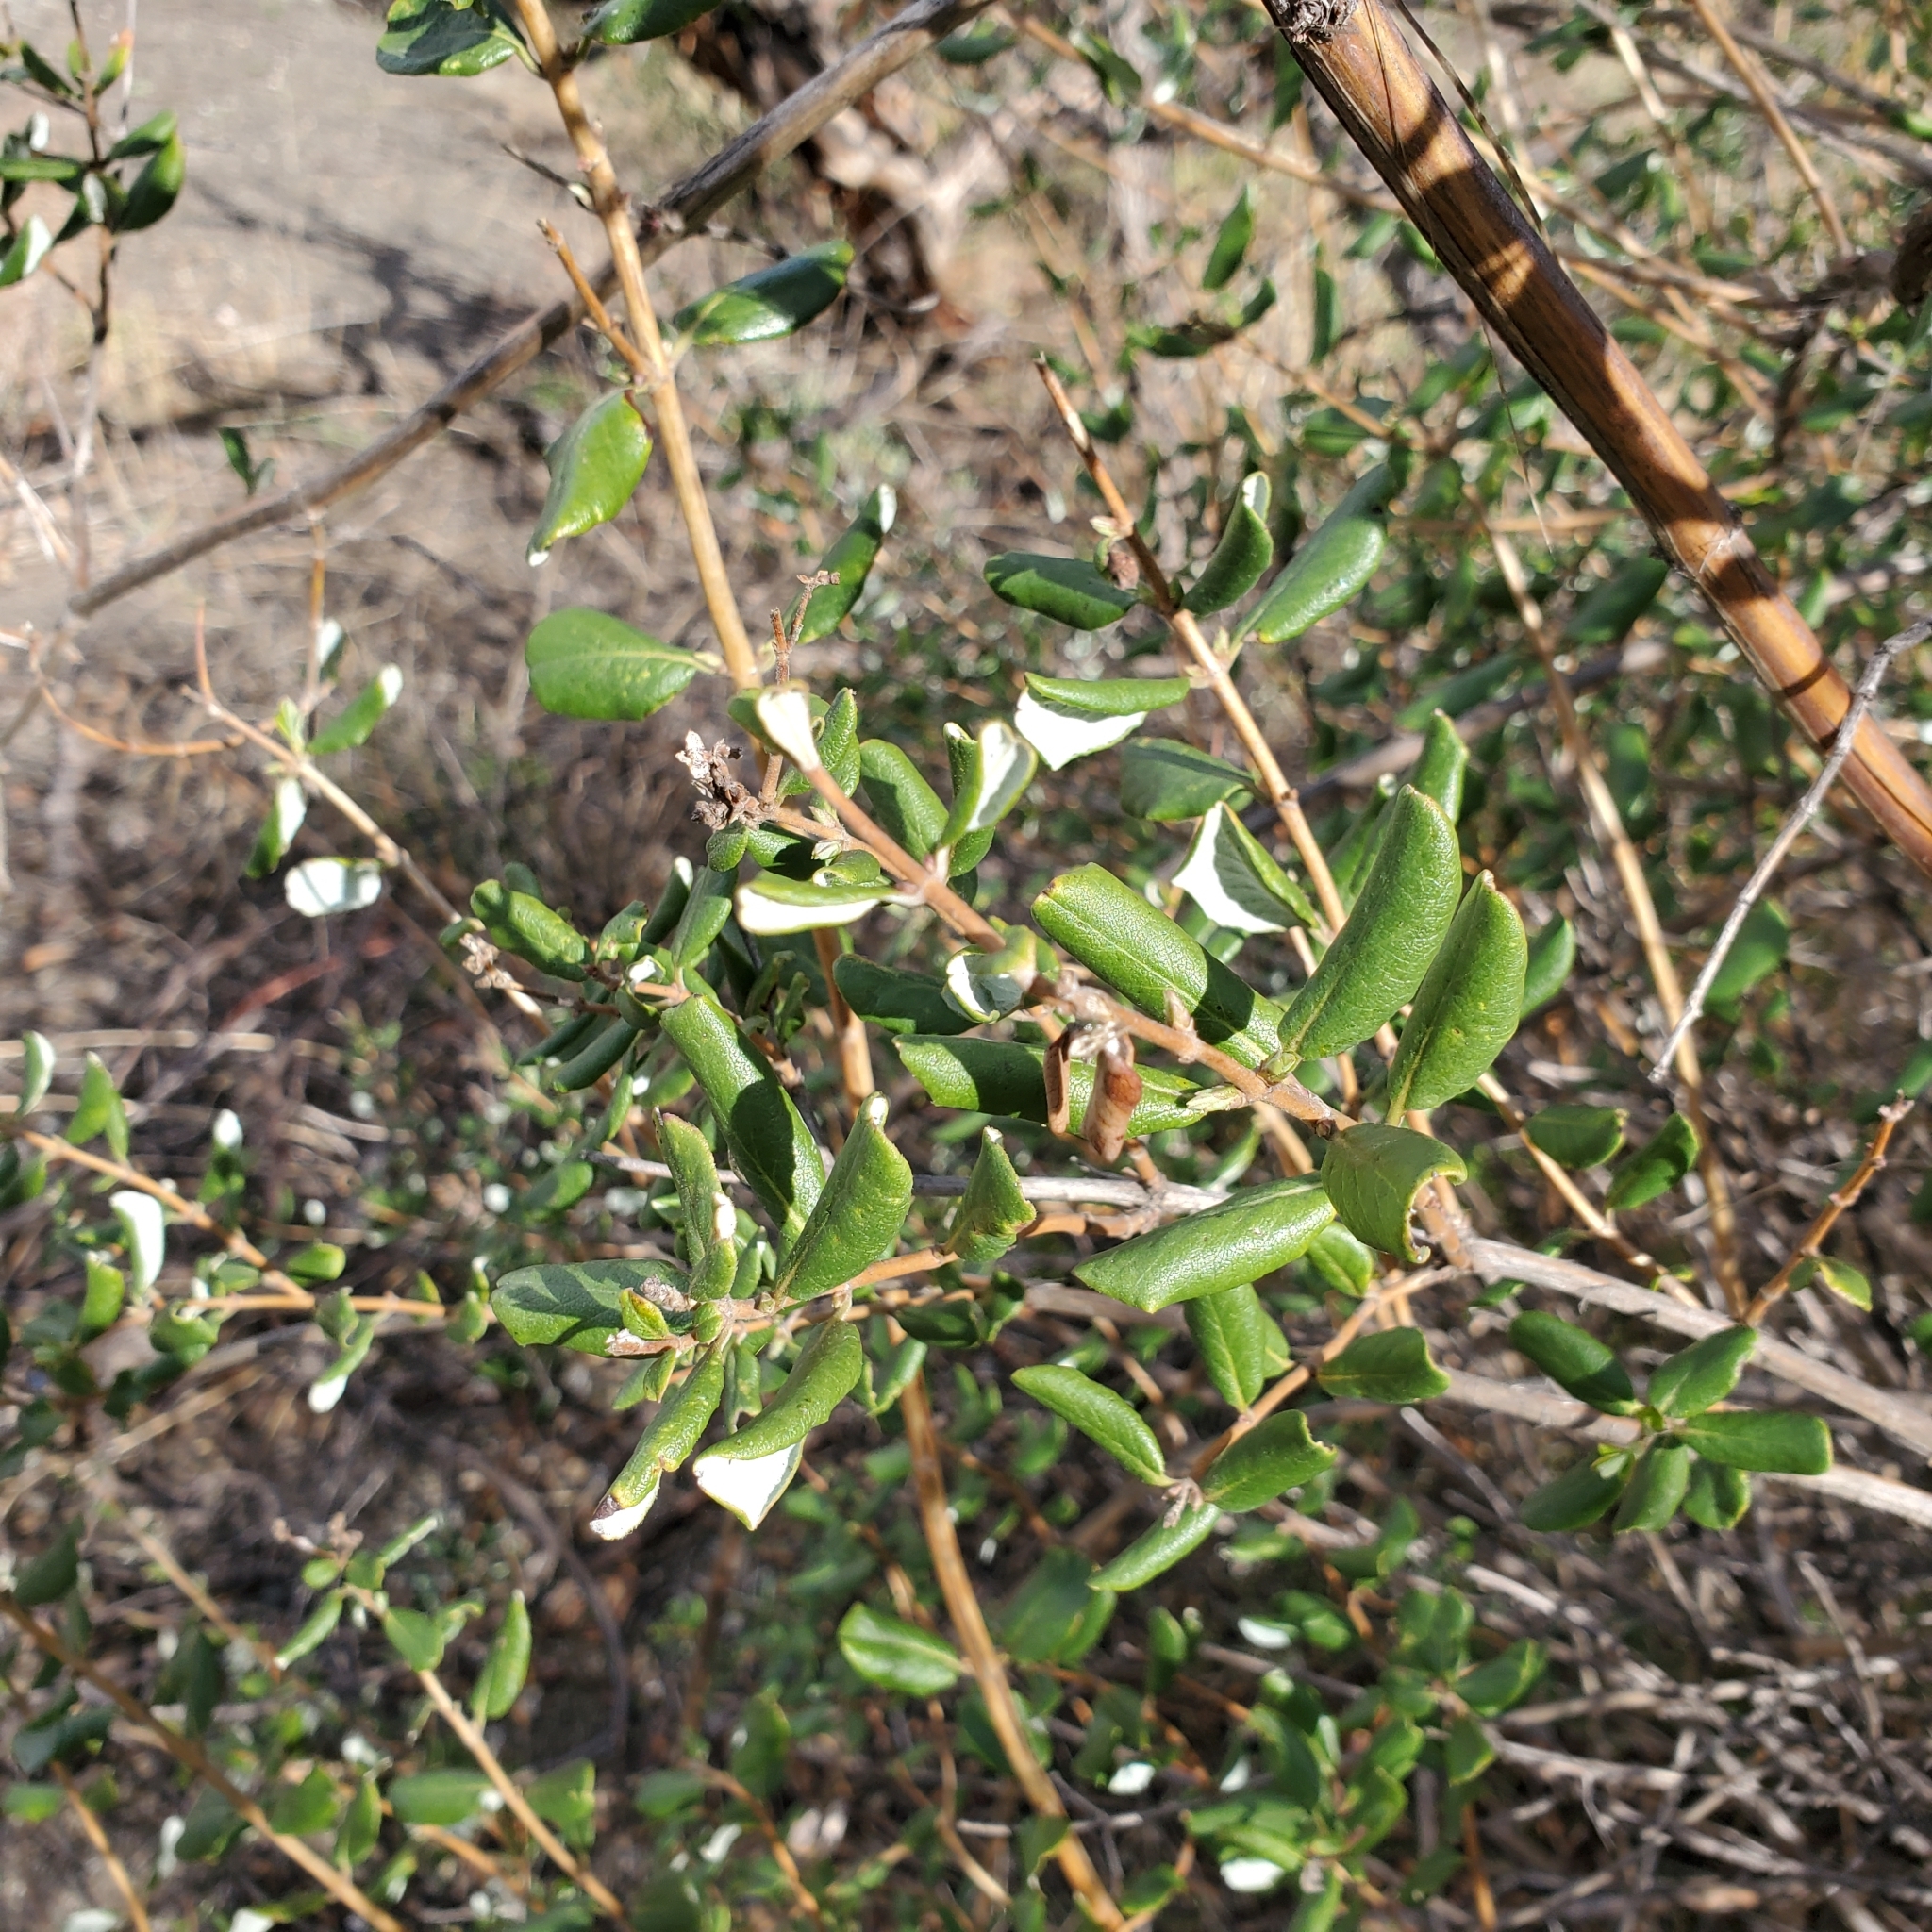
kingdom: Plantae
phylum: Tracheophyta
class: Magnoliopsida
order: Rosales
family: Rhamnaceae
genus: Ceanothus
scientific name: Ceanothus crassifolius
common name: Hoaryleaf ceanothus
